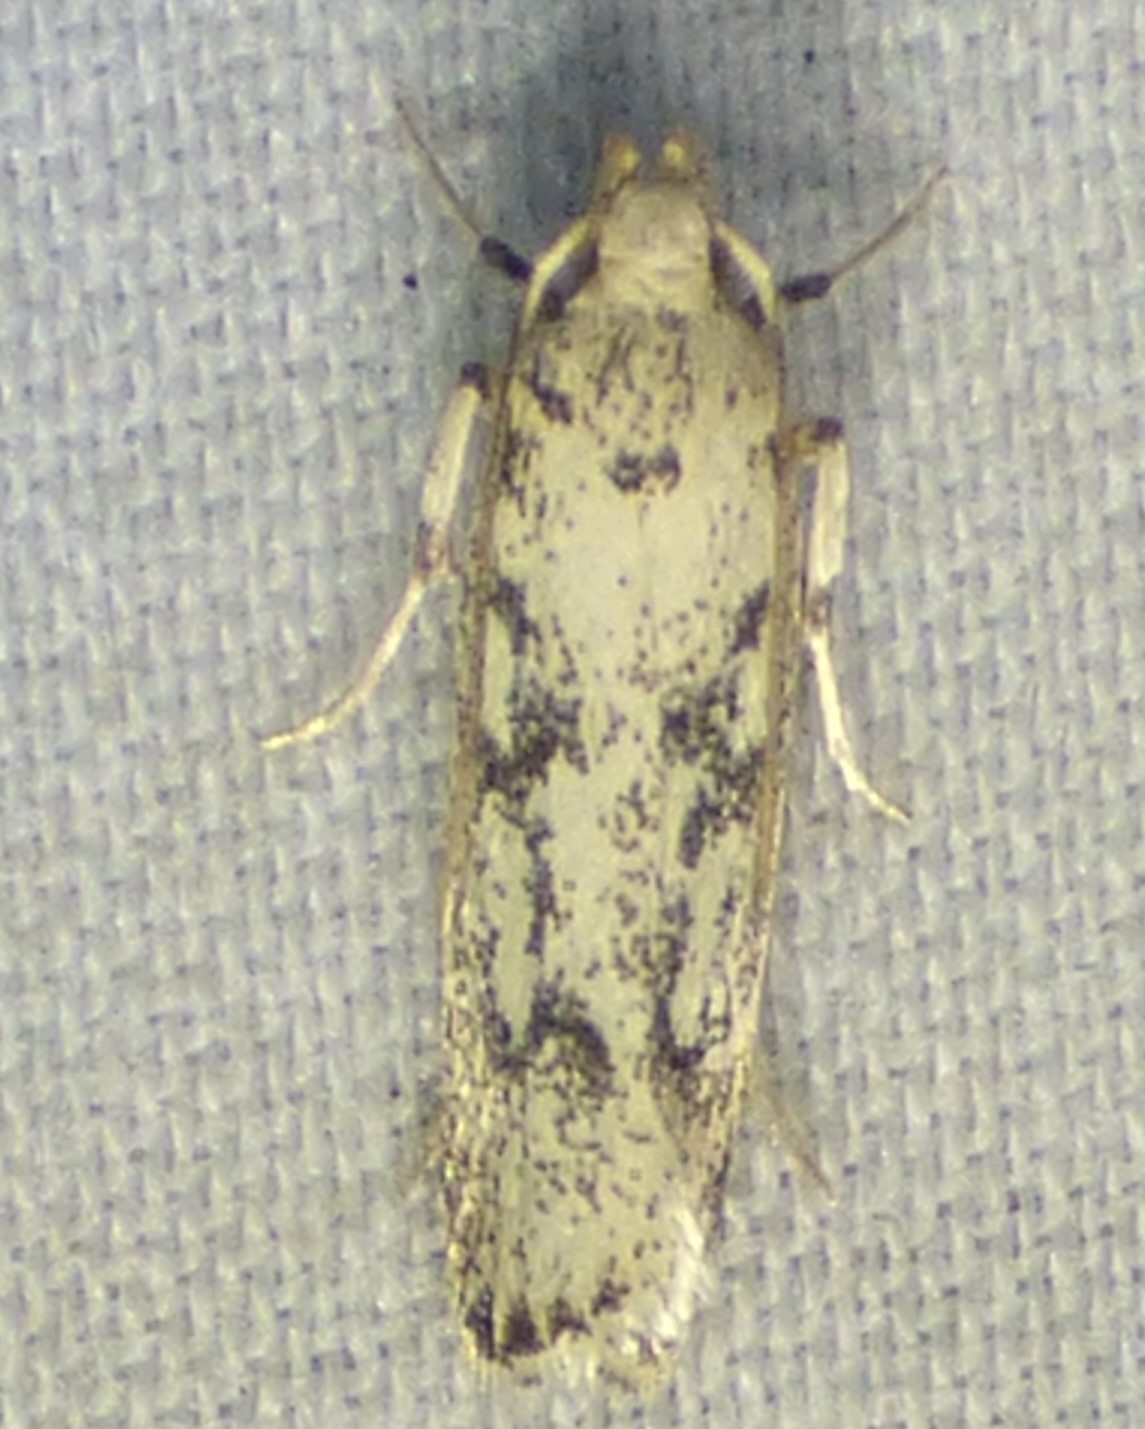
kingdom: Animalia
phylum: Arthropoda
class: Insecta
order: Lepidoptera
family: Autostichidae
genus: Glyphidocera
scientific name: Glyphidocera lactiflosella
